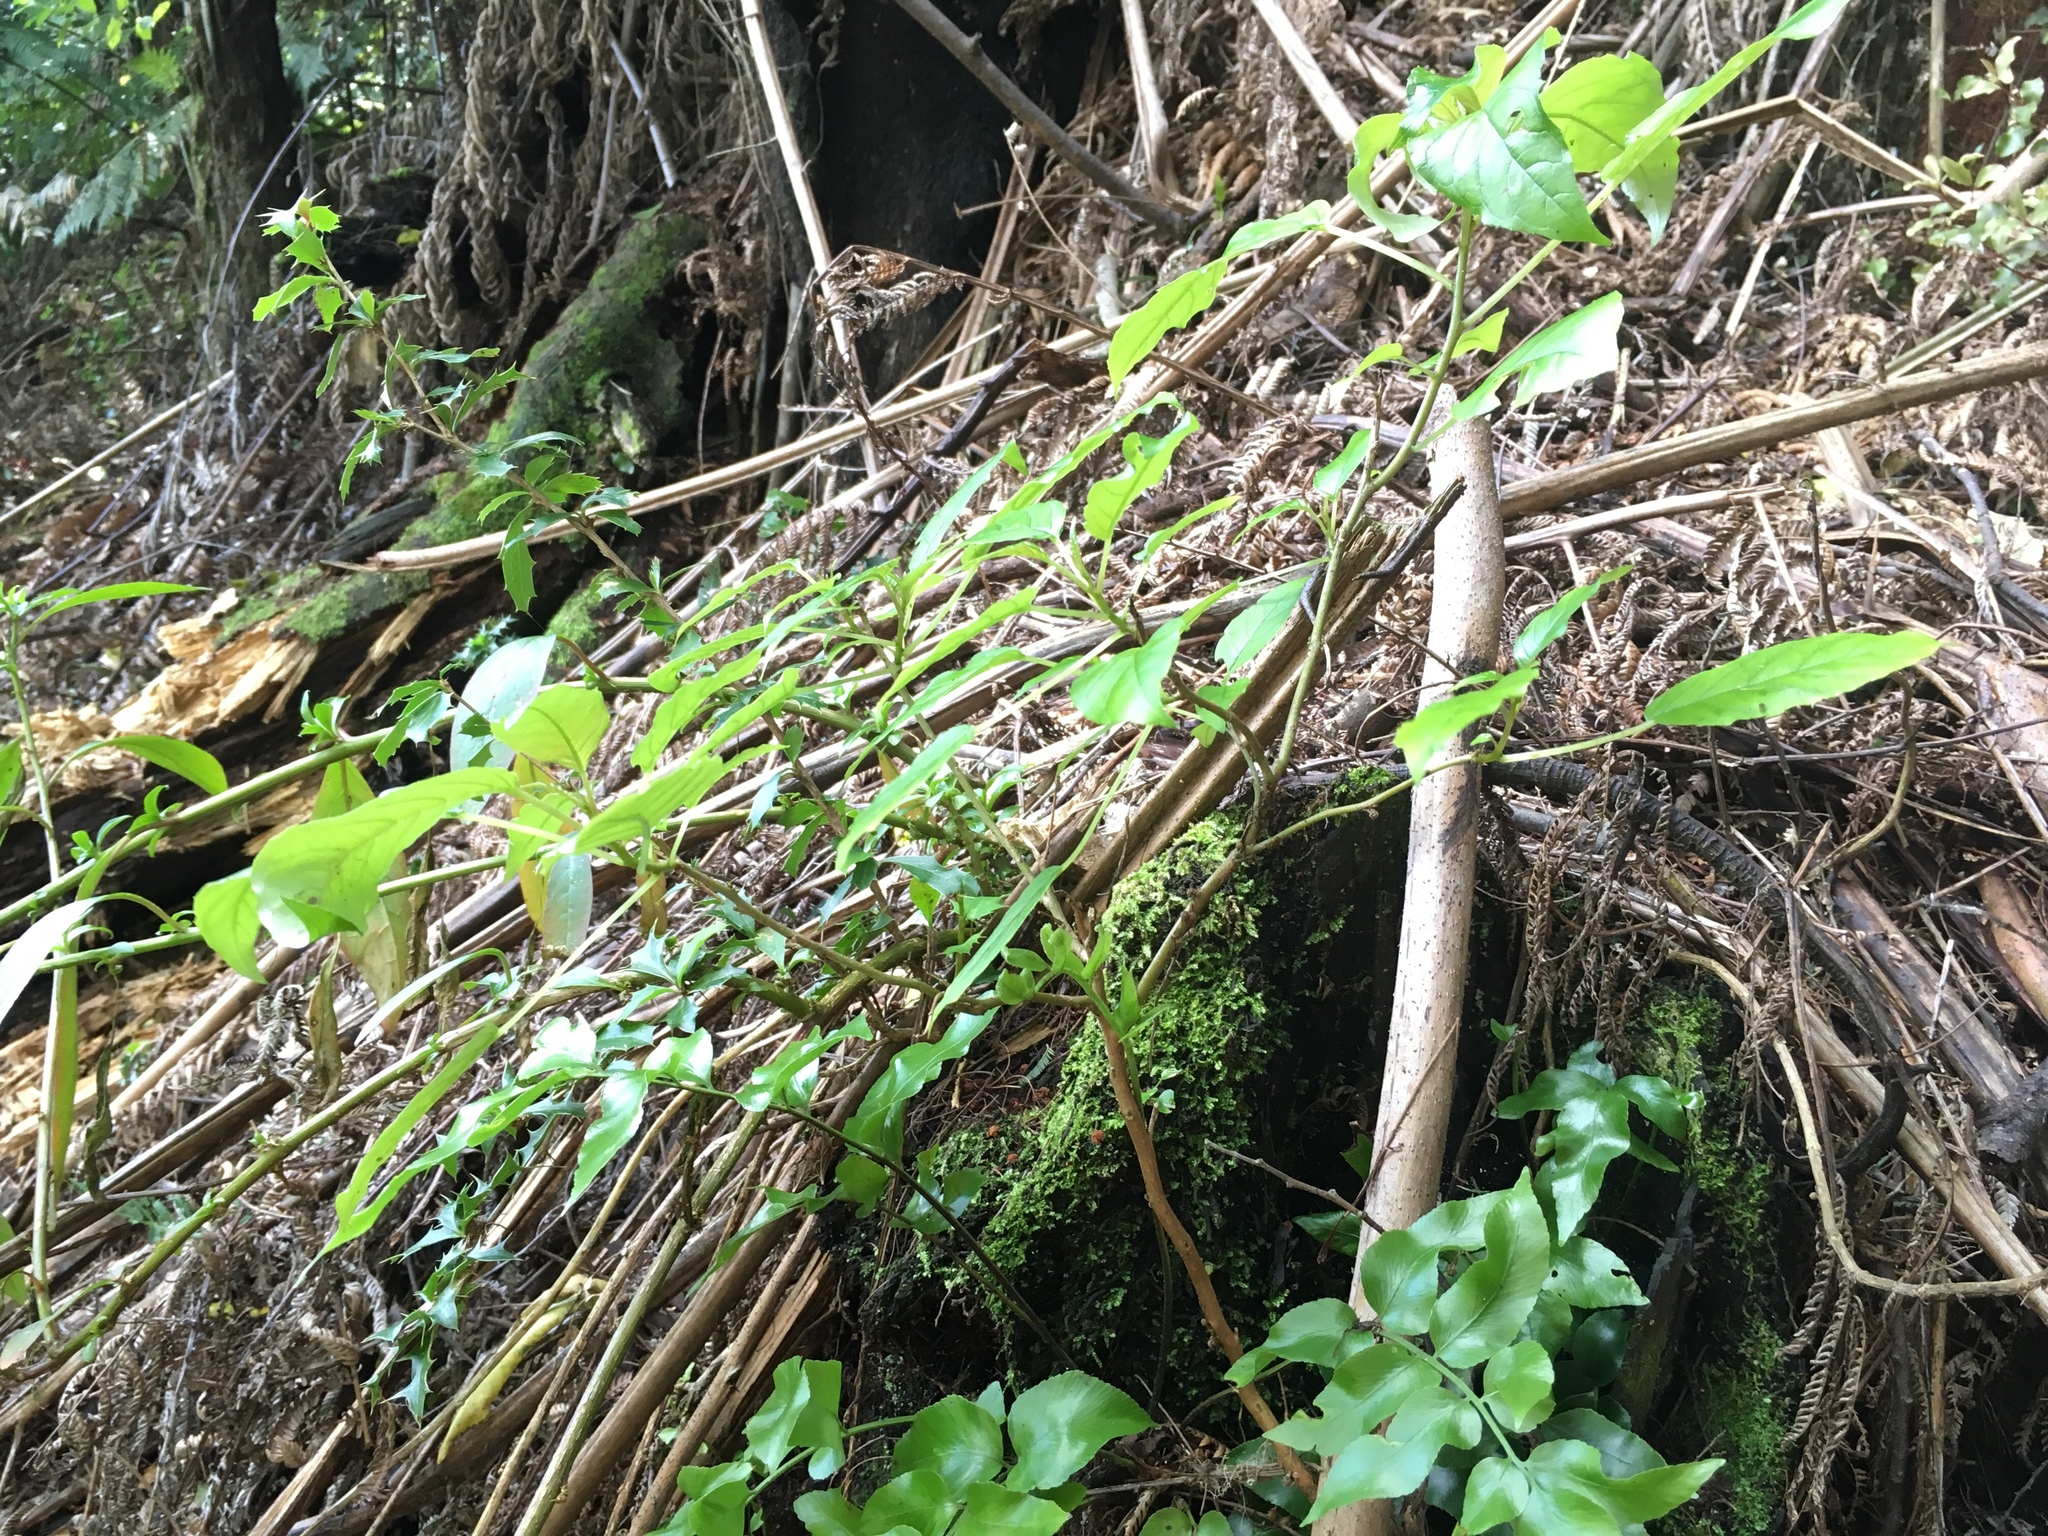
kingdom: Plantae
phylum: Tracheophyta
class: Magnoliopsida
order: Myrtales
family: Onagraceae
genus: Fuchsia
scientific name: Fuchsia excorticata
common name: Tree fuchsia
